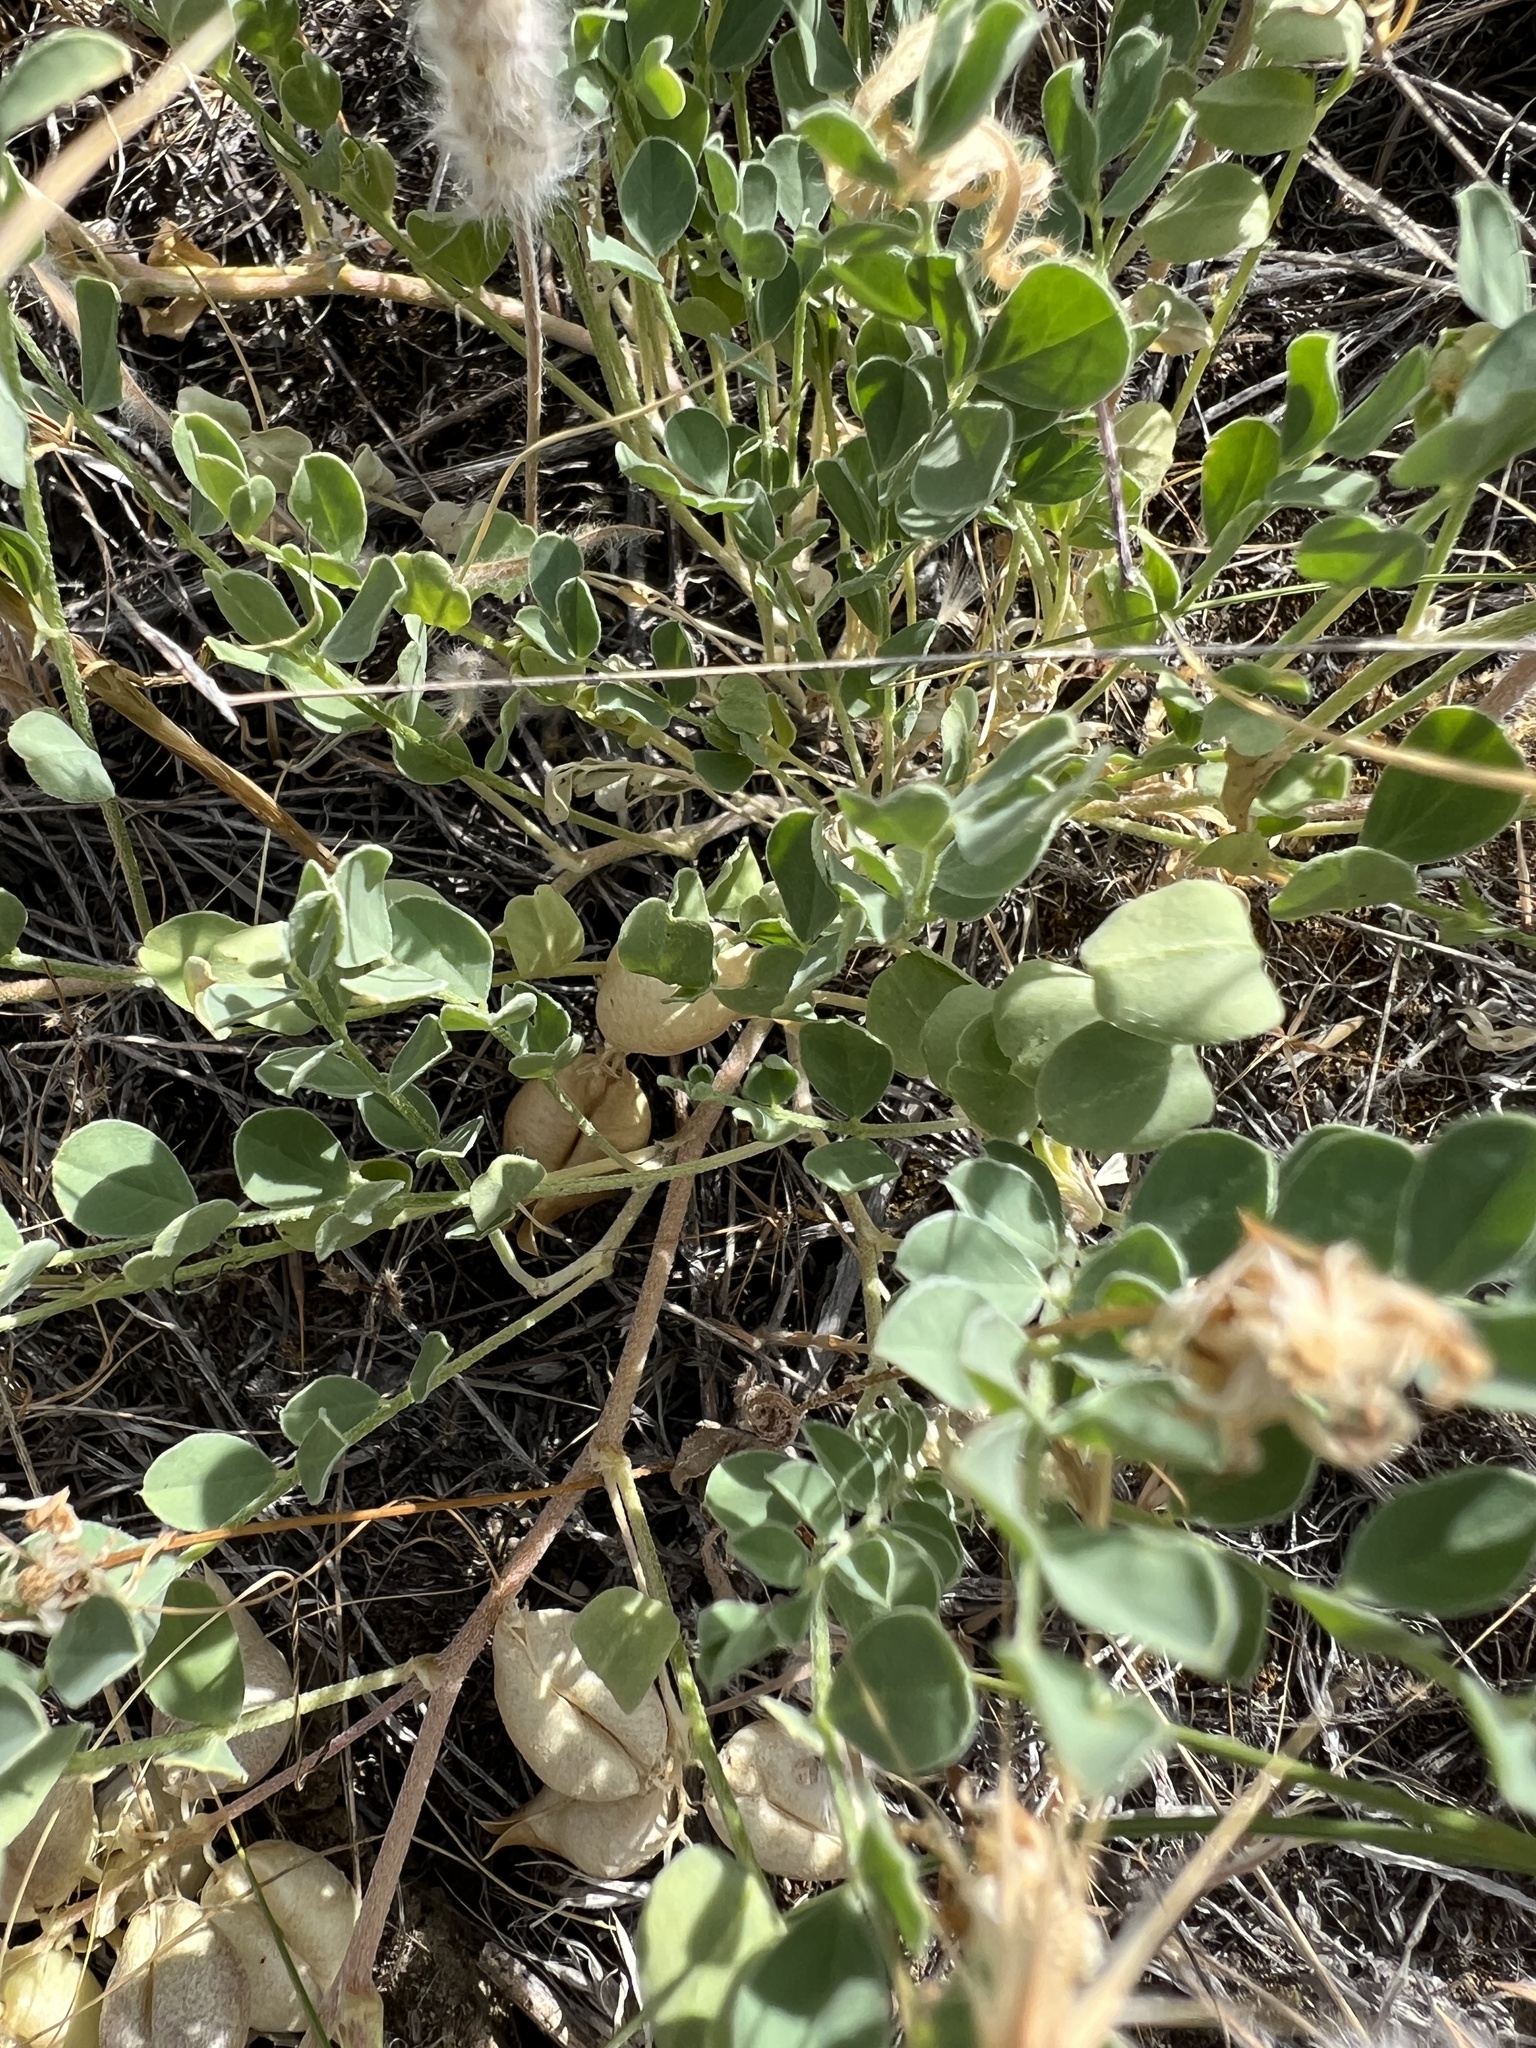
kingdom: Plantae
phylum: Tracheophyta
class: Magnoliopsida
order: Fabales
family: Fabaceae
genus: Astragalus
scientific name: Astragalus lentiginosus
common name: Freckled milkvetch
